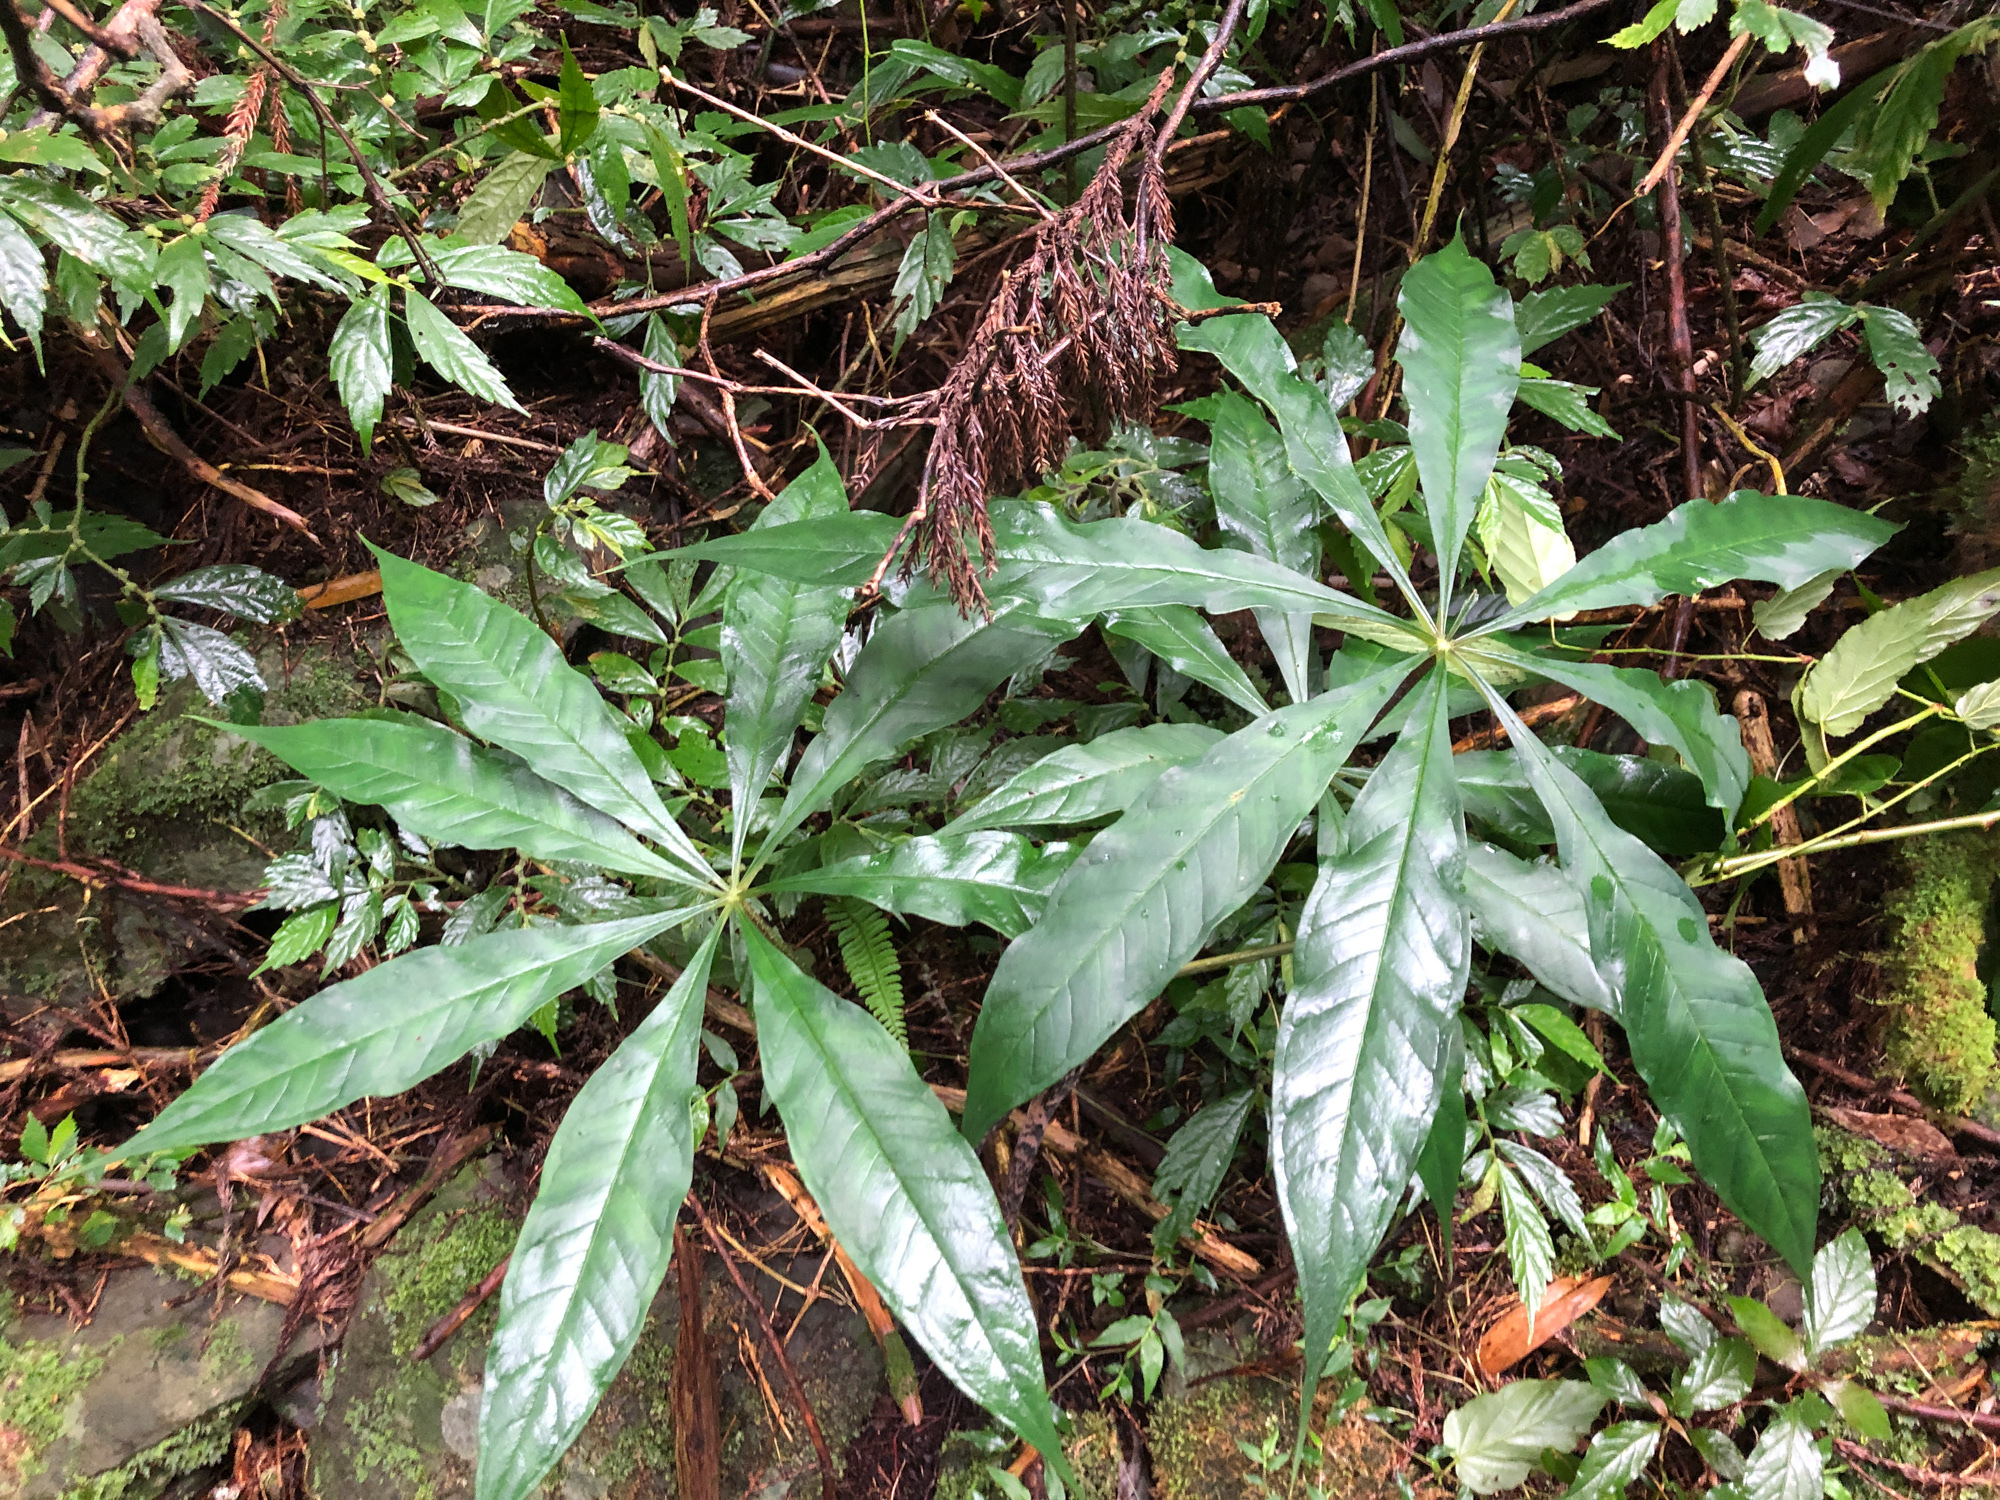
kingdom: Plantae
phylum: Tracheophyta
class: Liliopsida
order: Alismatales
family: Araceae
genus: Arisaema
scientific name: Arisaema formosanum
